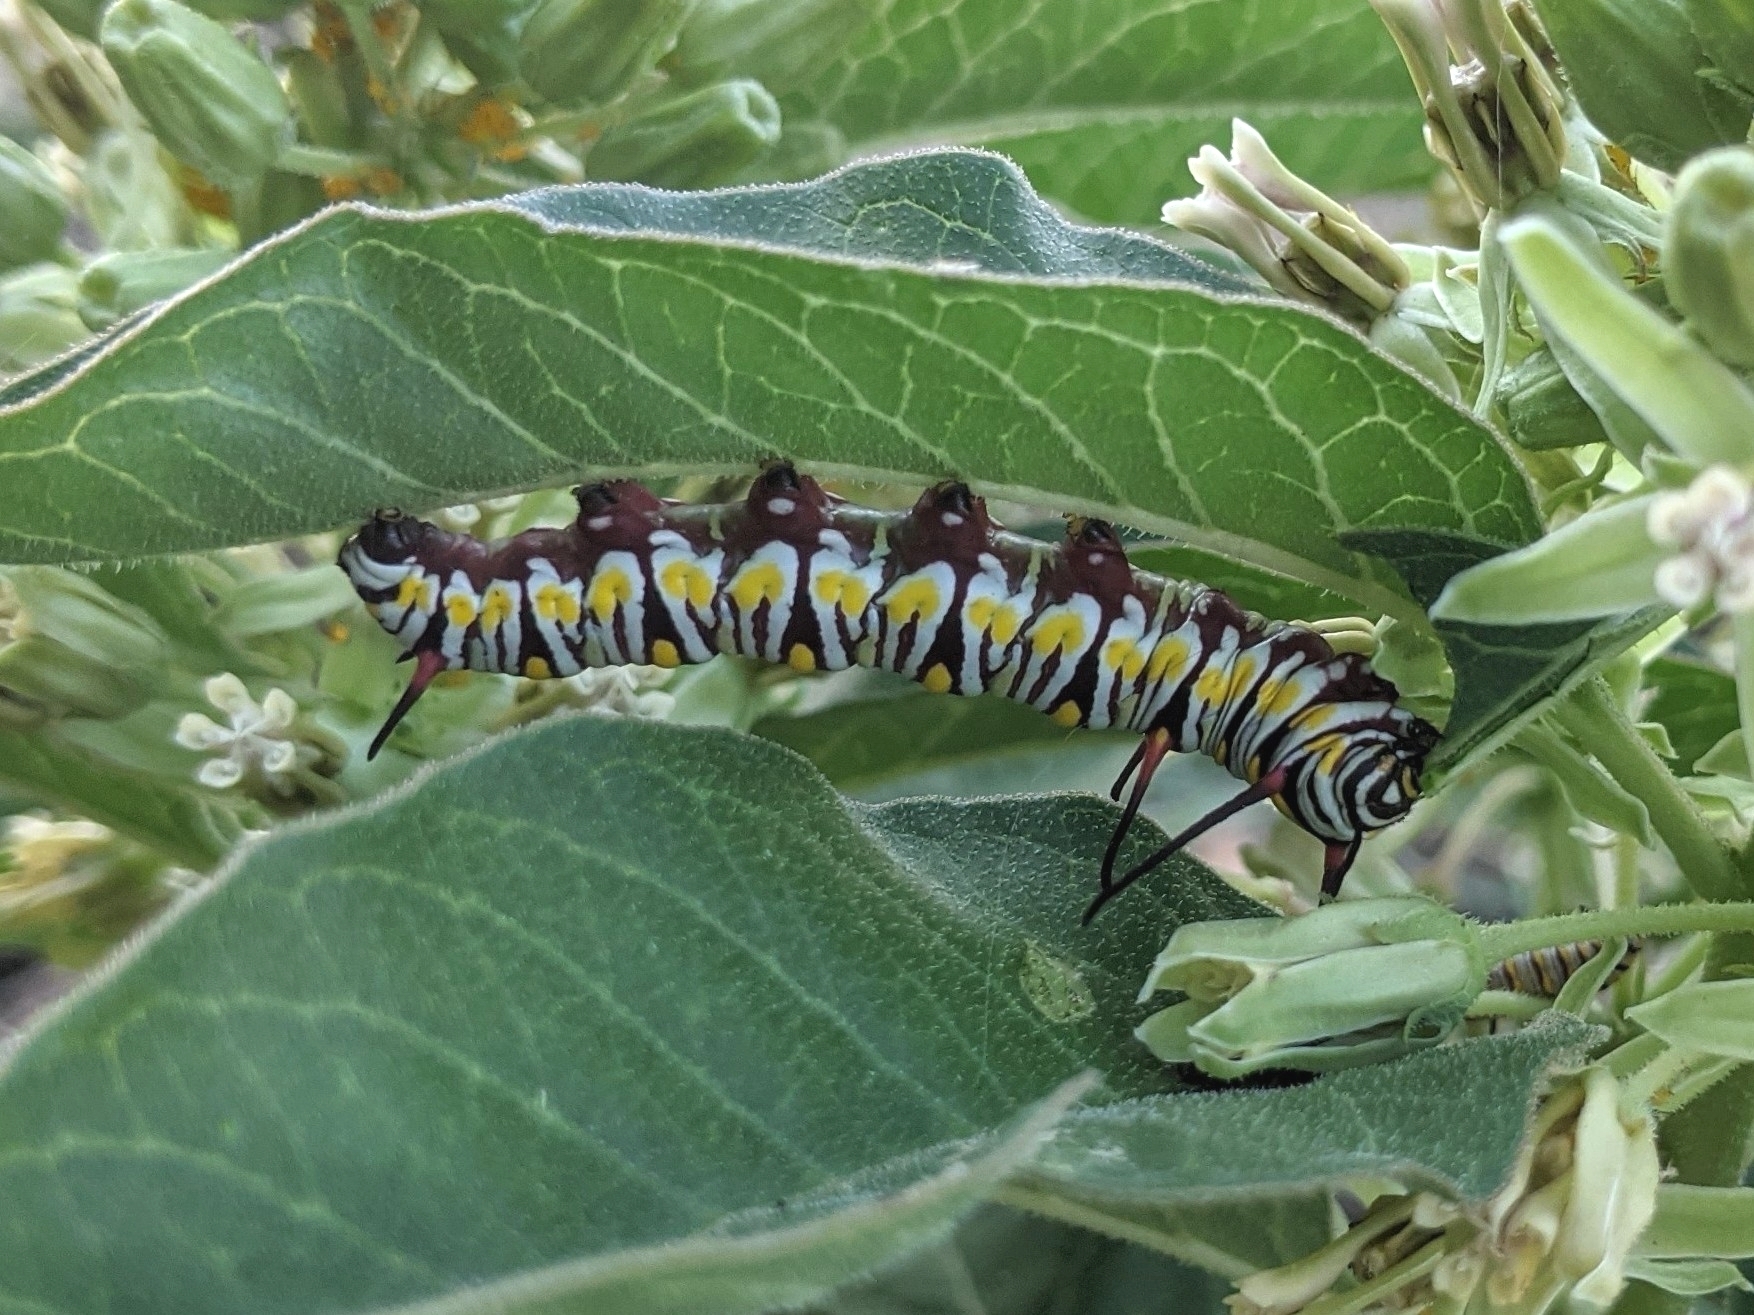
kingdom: Animalia
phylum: Arthropoda
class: Insecta
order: Lepidoptera
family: Nymphalidae
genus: Danaus
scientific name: Danaus gilippus
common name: Queen
